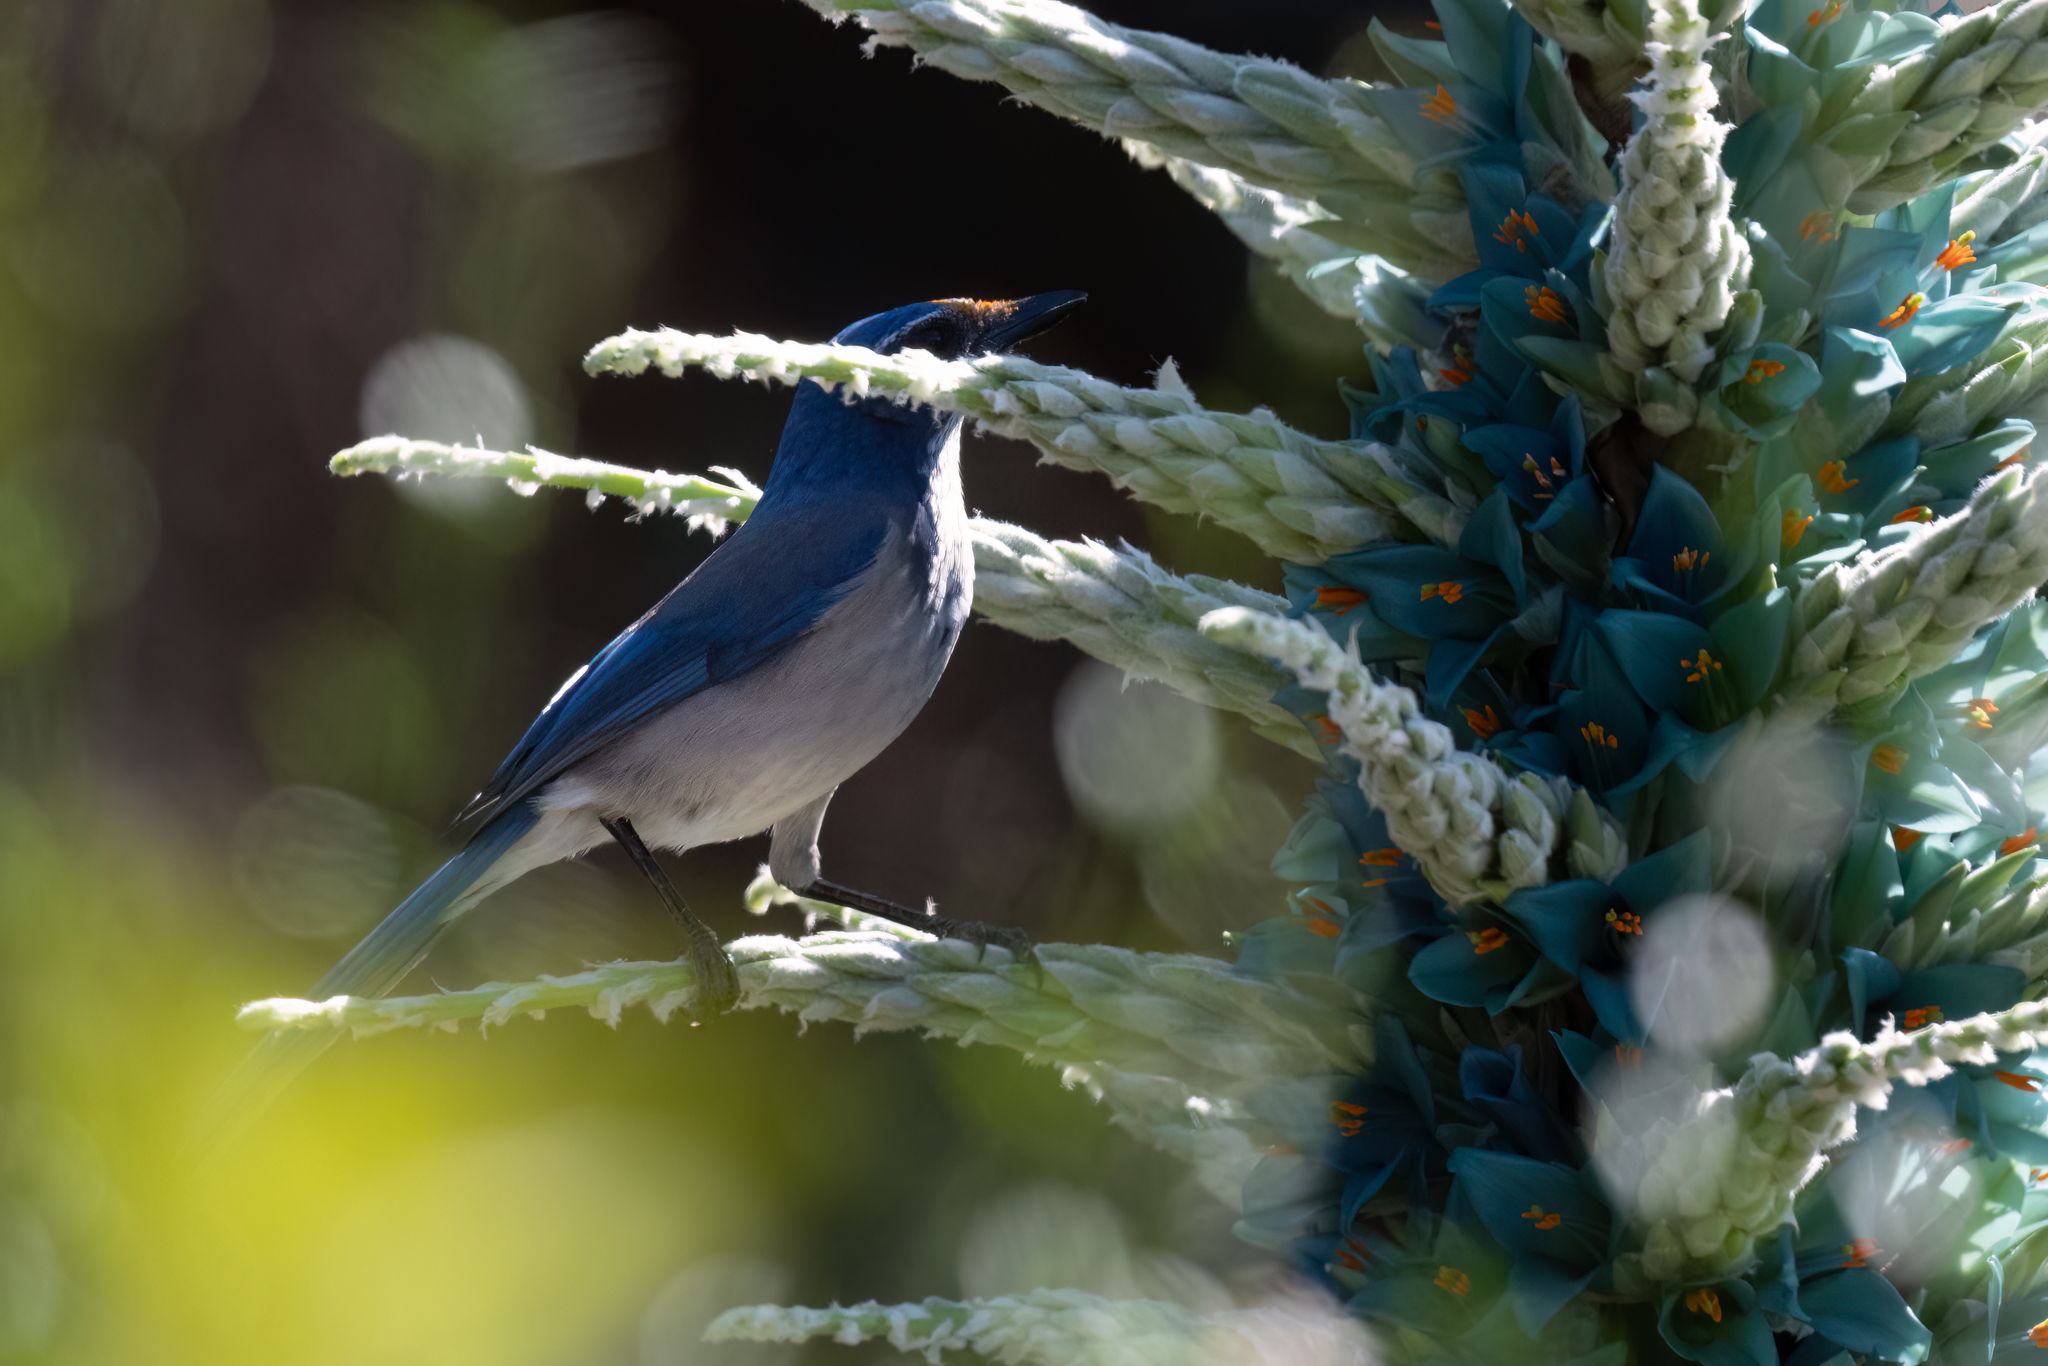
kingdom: Animalia
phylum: Chordata
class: Aves
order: Passeriformes
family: Corvidae
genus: Aphelocoma
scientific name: Aphelocoma californica
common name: California scrub-jay
